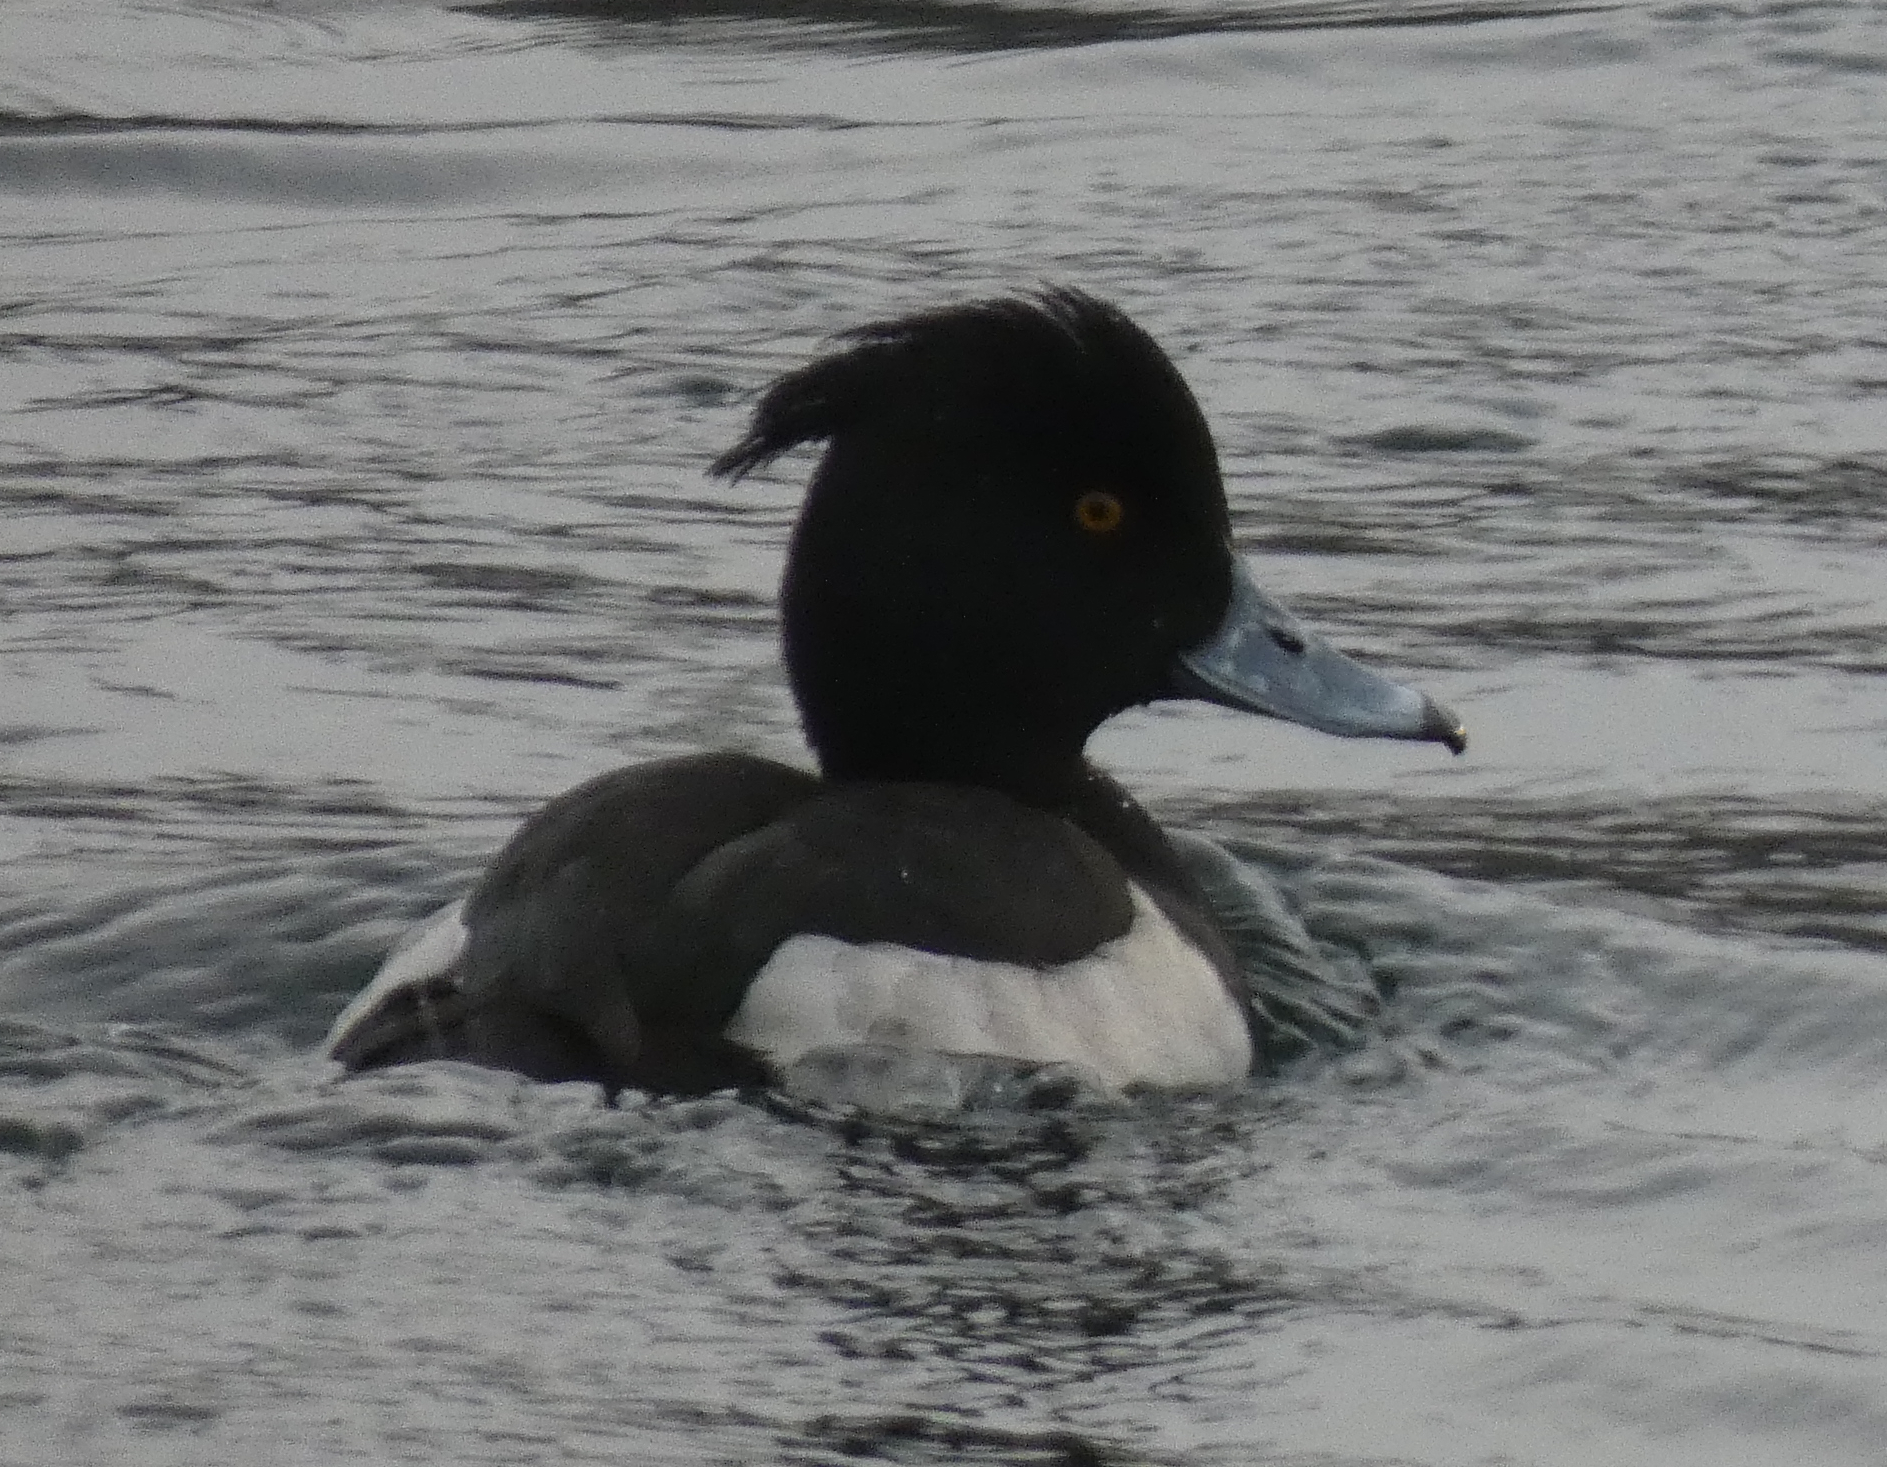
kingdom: Animalia
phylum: Chordata
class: Aves
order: Anseriformes
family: Anatidae
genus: Aythya
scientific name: Aythya fuligula
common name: Tufted duck
